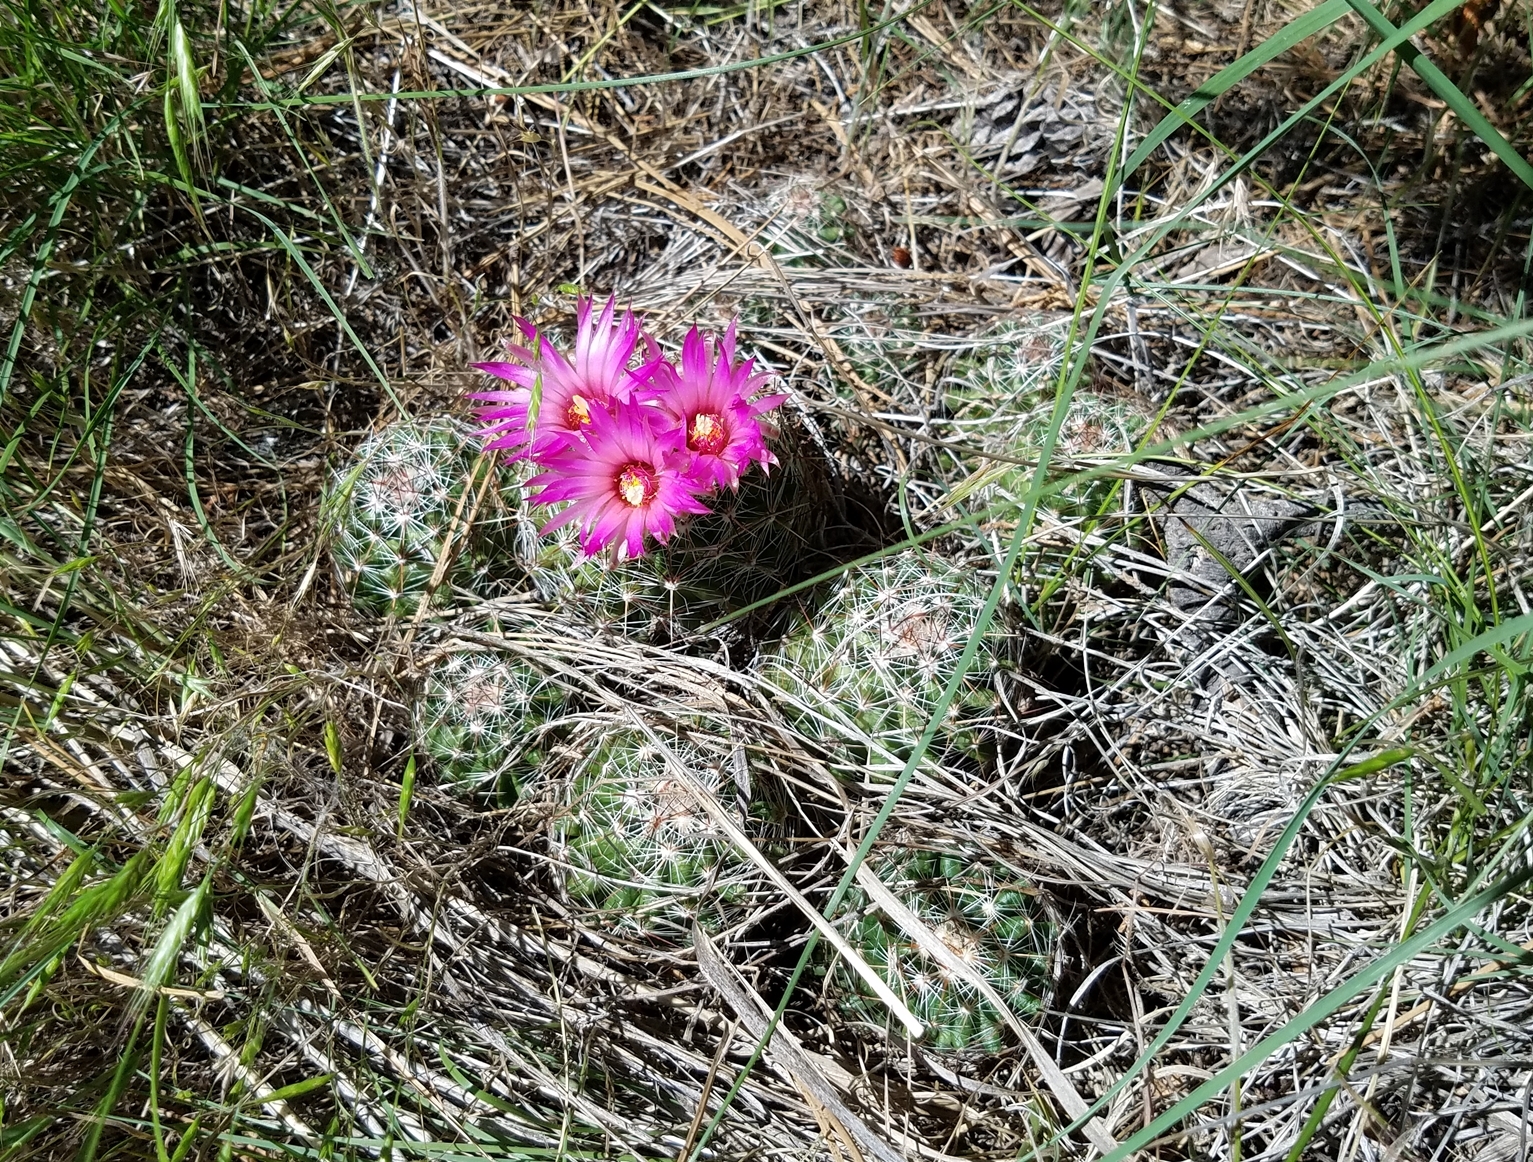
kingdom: Plantae
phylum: Tracheophyta
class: Magnoliopsida
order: Caryophyllales
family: Cactaceae
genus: Pelecyphora
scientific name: Pelecyphora vivipara
